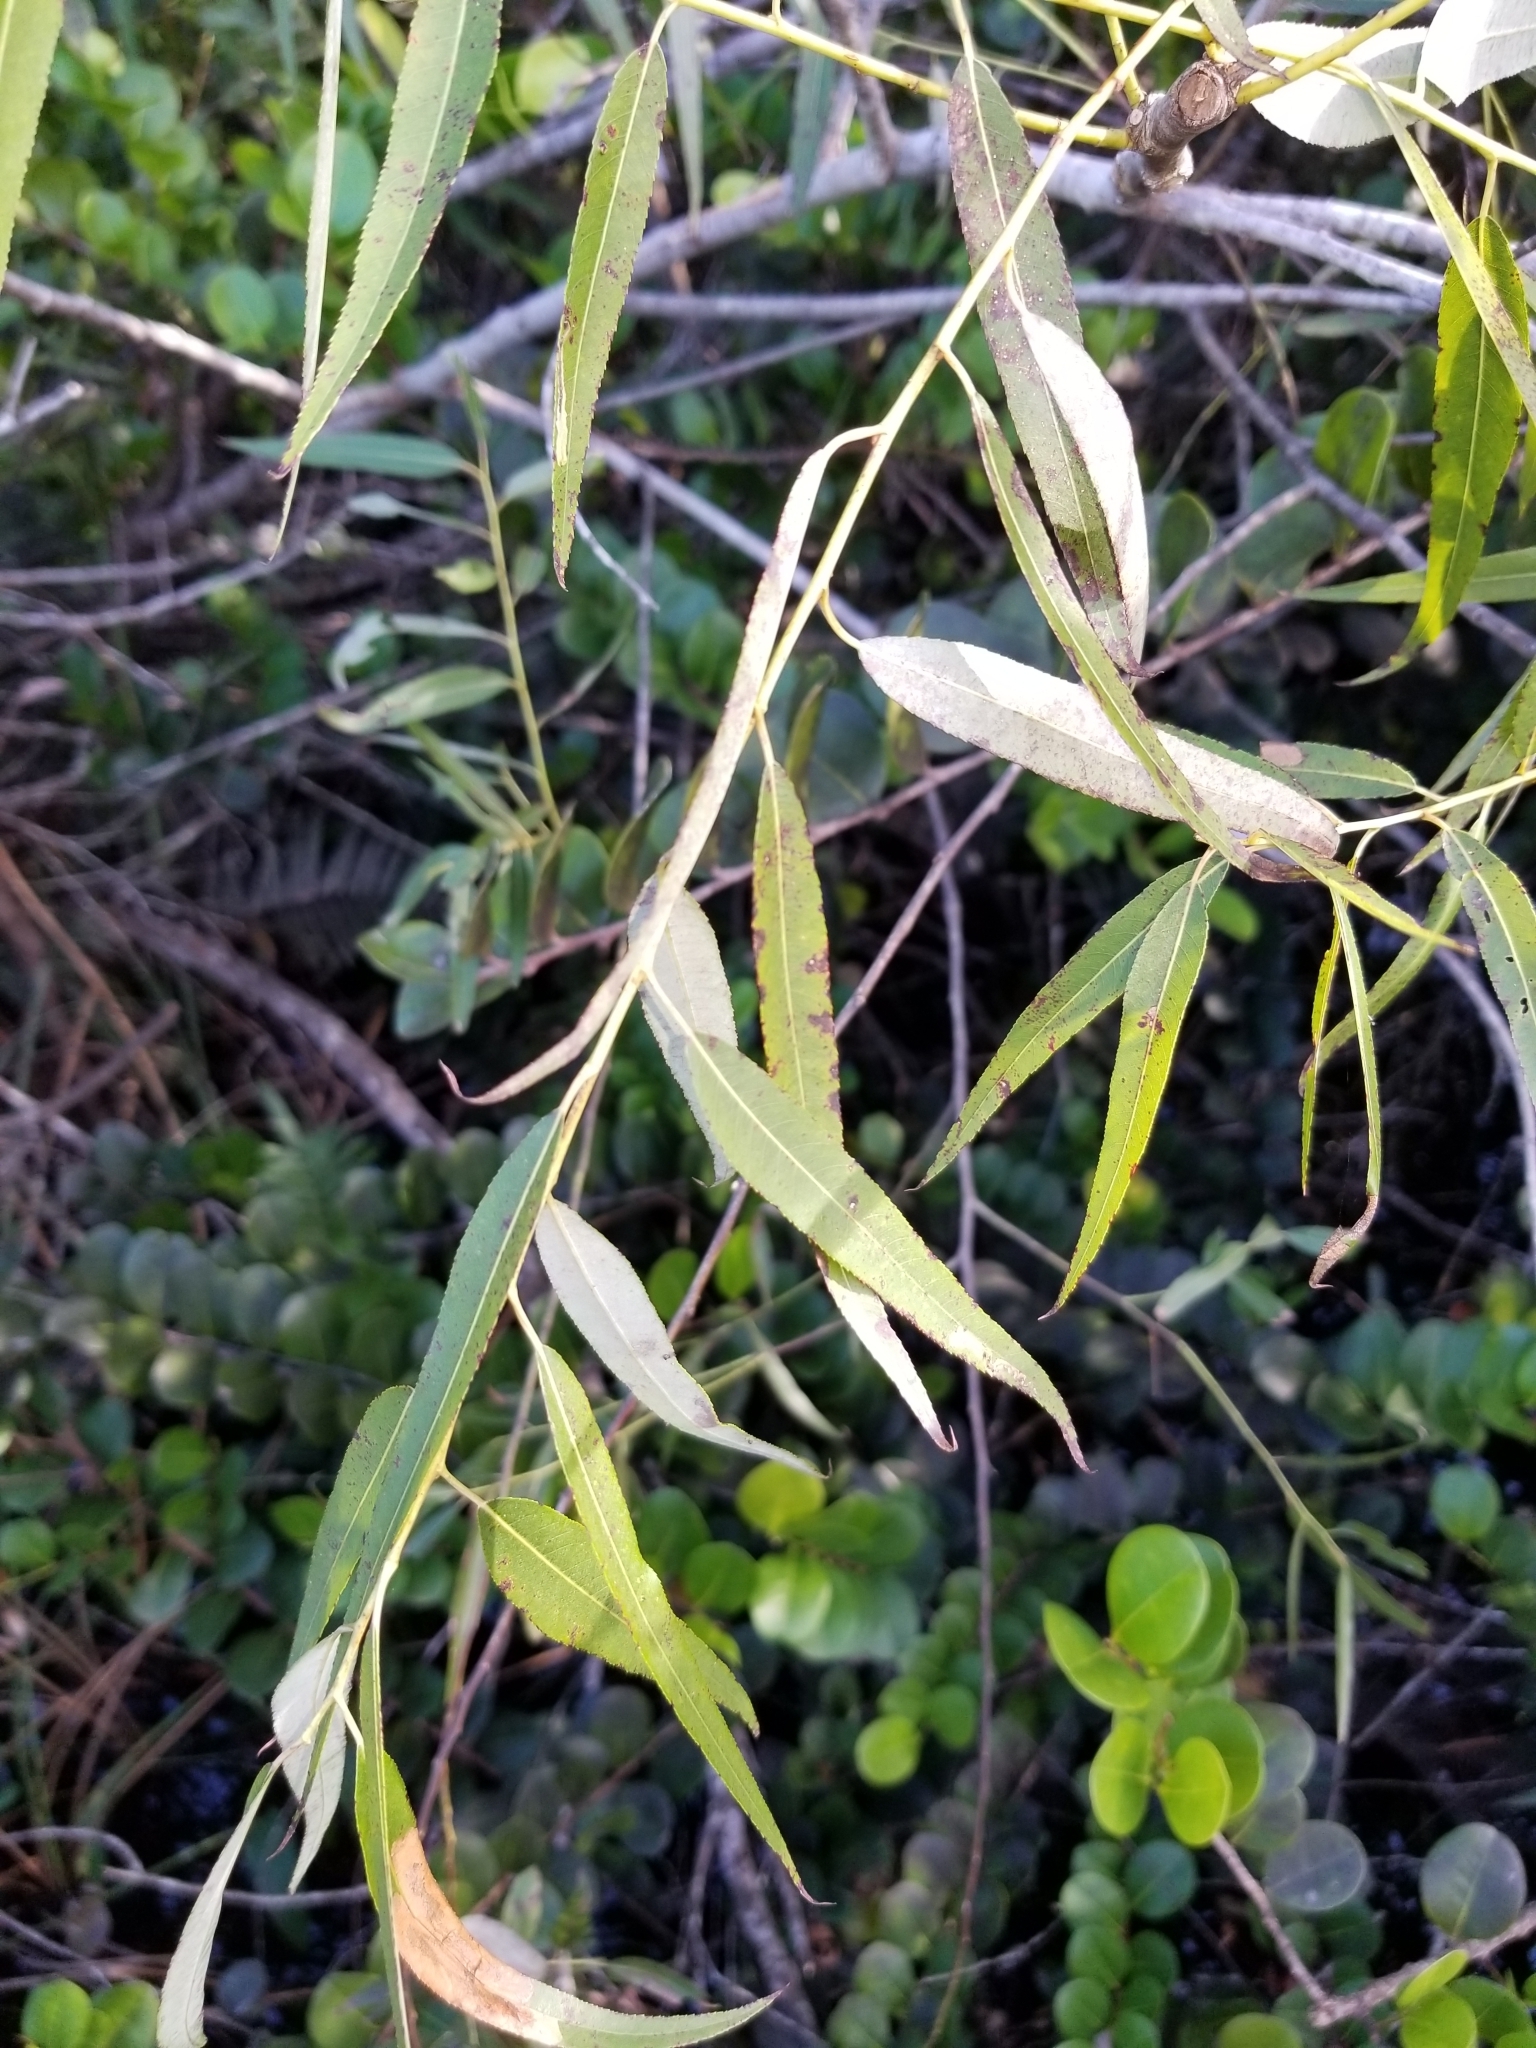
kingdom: Plantae
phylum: Tracheophyta
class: Magnoliopsida
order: Malpighiales
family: Salicaceae
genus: Salix
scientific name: Salix caroliniana
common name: Carolina willow
